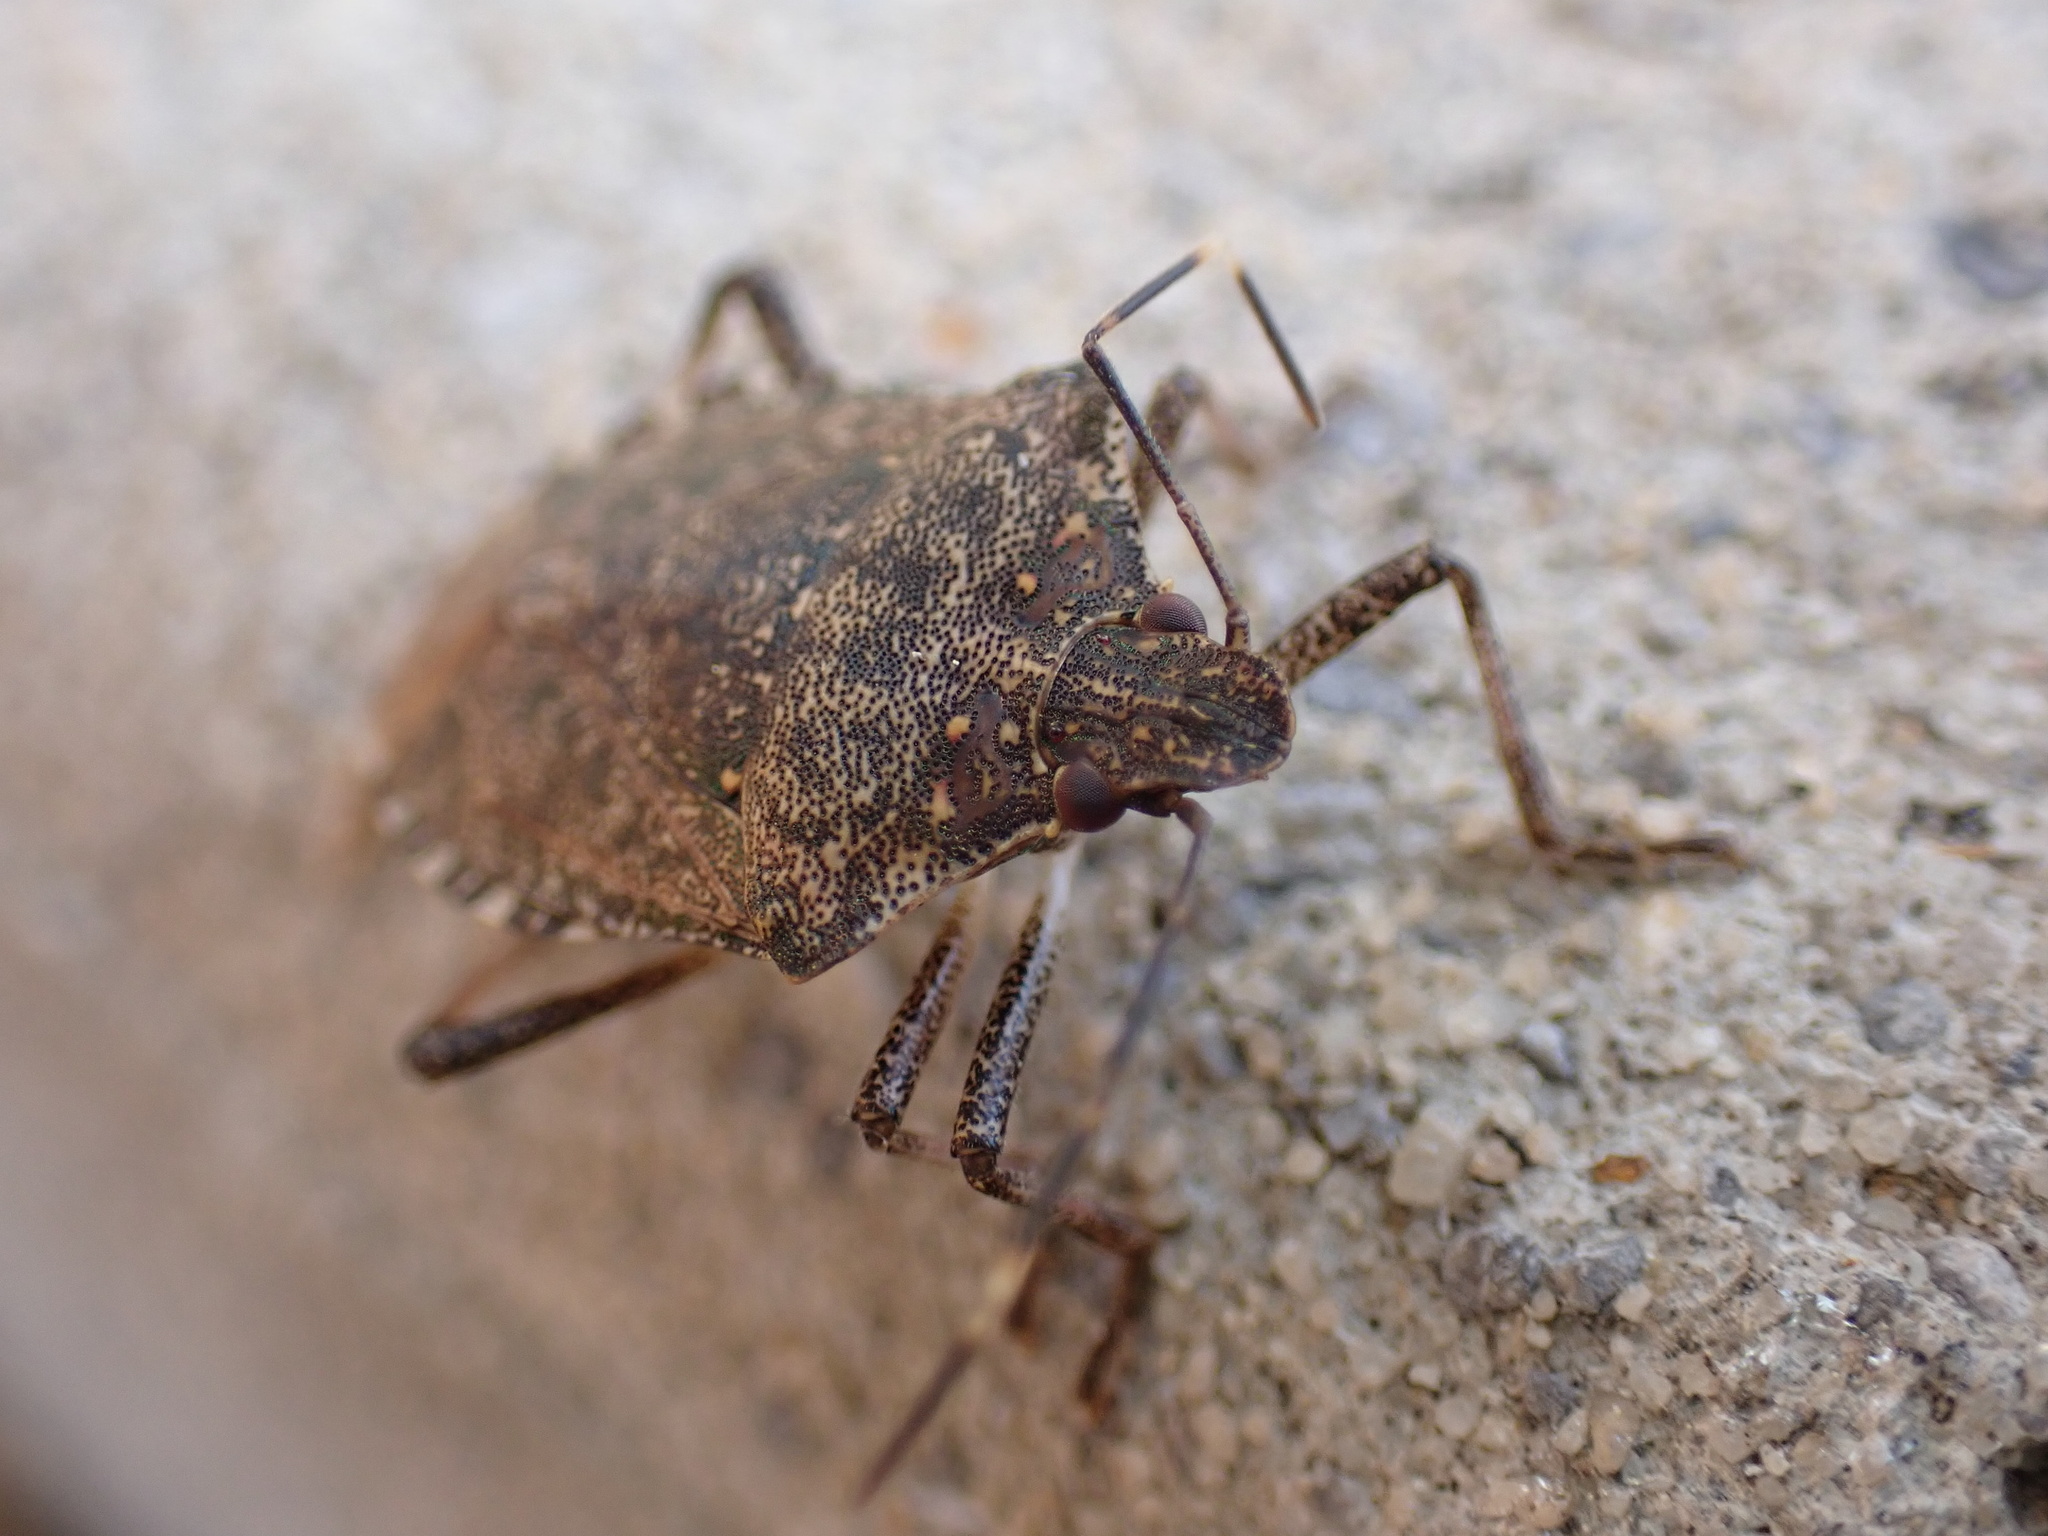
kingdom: Animalia
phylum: Arthropoda
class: Insecta
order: Hemiptera
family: Pentatomidae
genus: Halyomorpha
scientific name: Halyomorpha halys
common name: Brown marmorated stink bug
